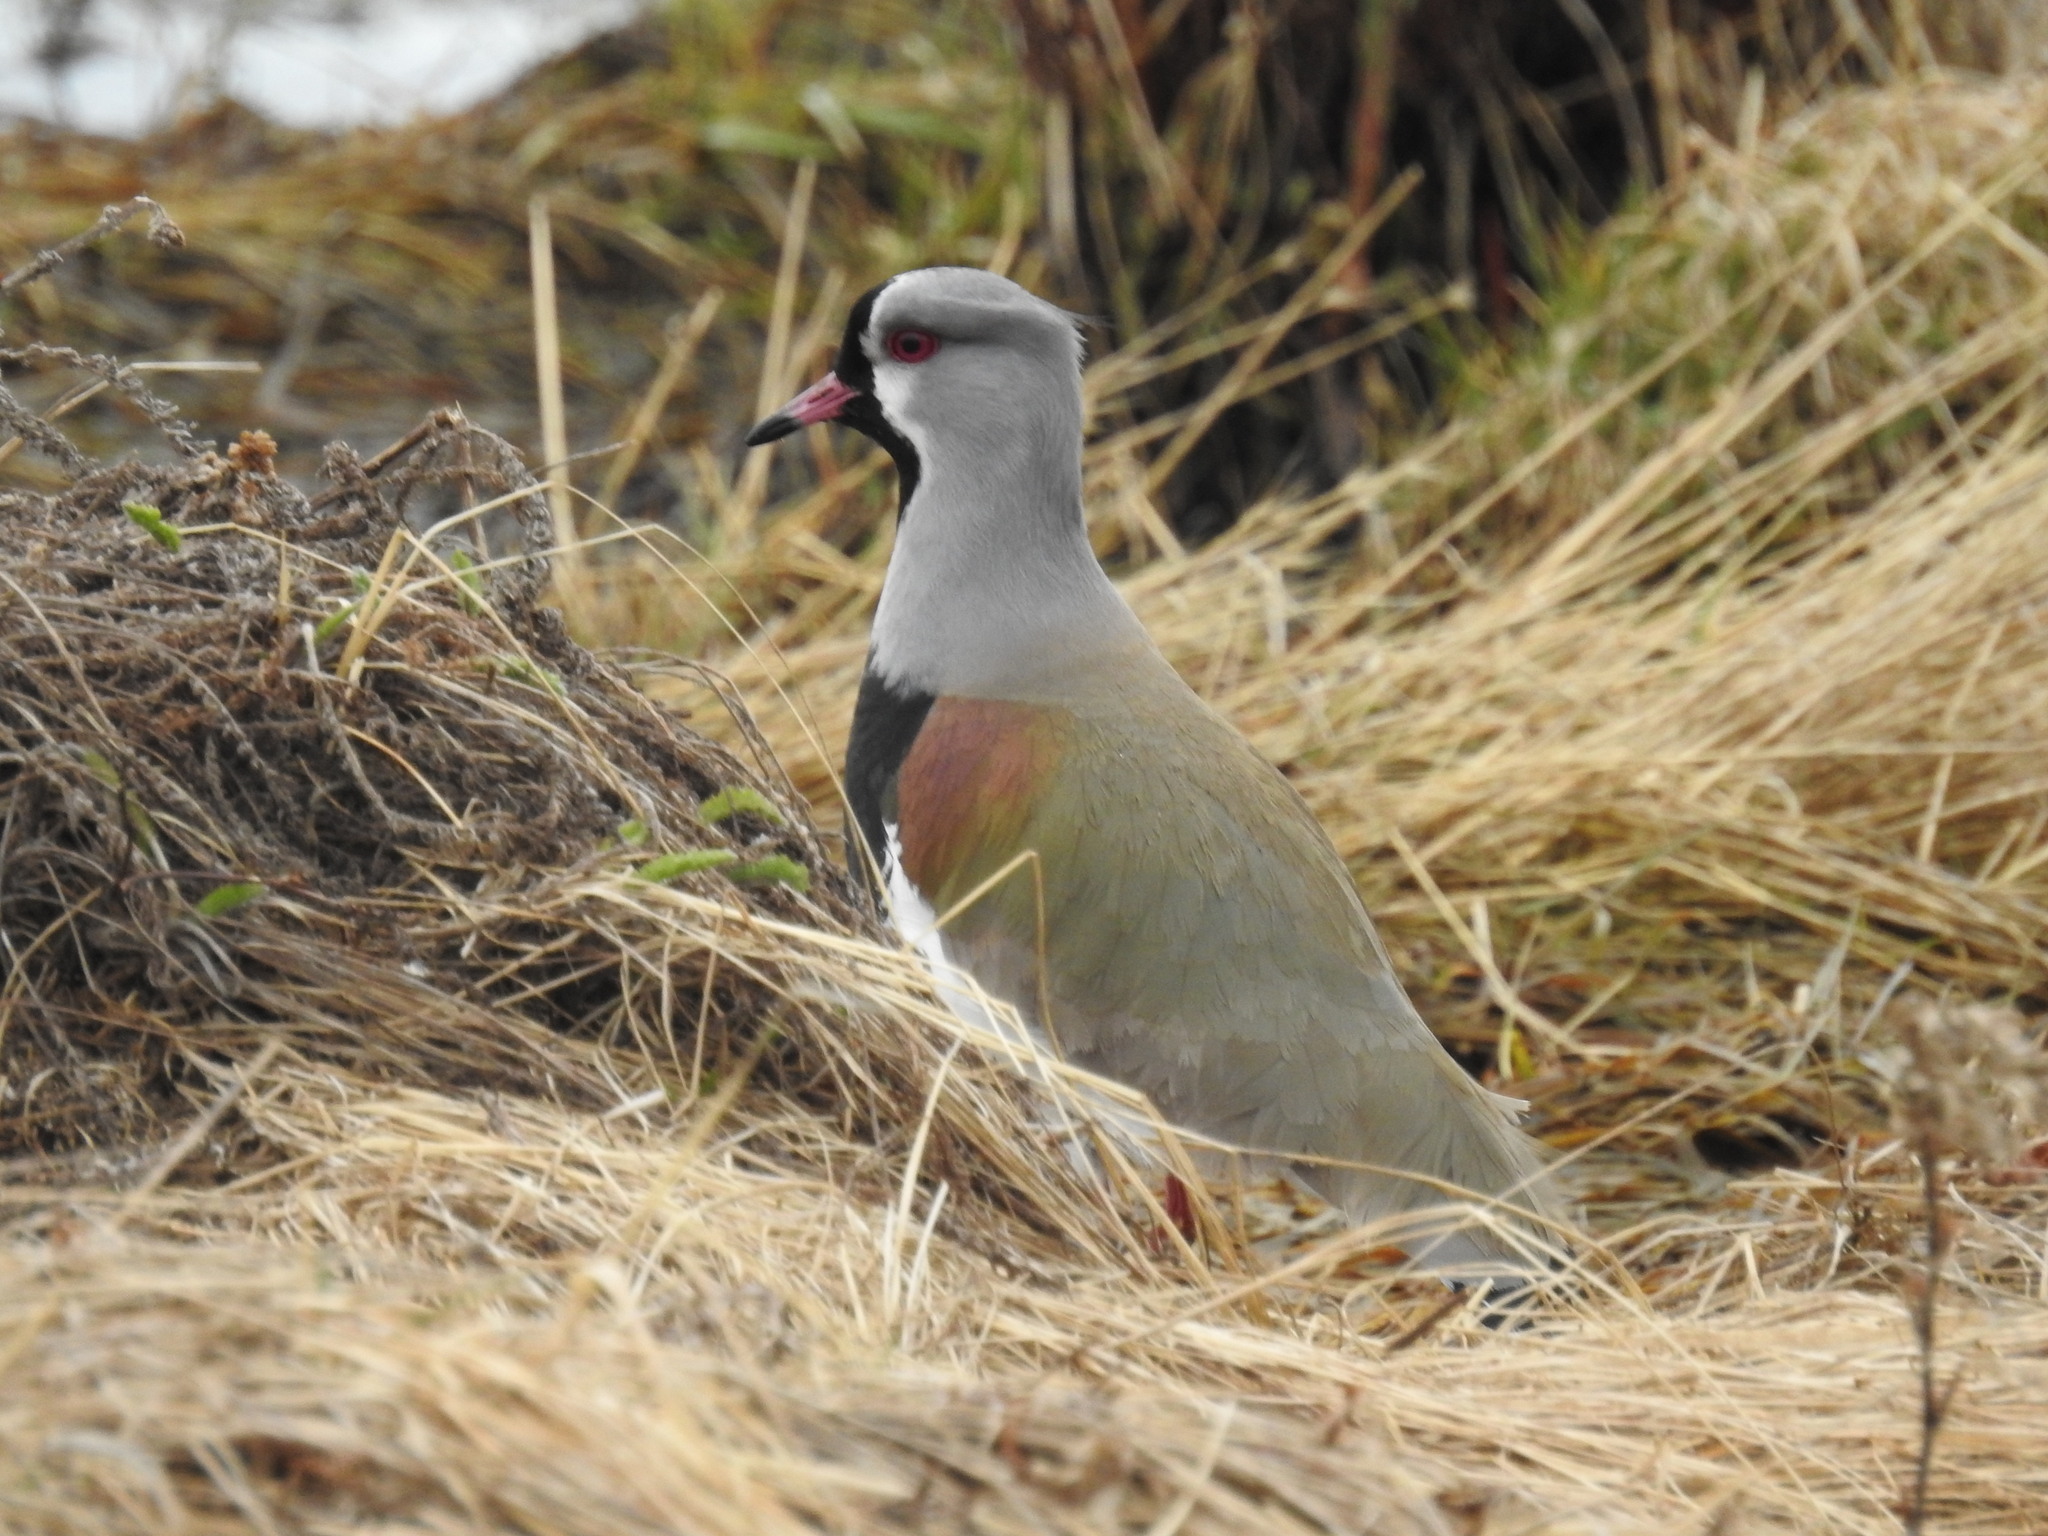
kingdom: Animalia
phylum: Chordata
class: Aves
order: Charadriiformes
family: Charadriidae
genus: Vanellus
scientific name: Vanellus chilensis
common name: Southern lapwing
